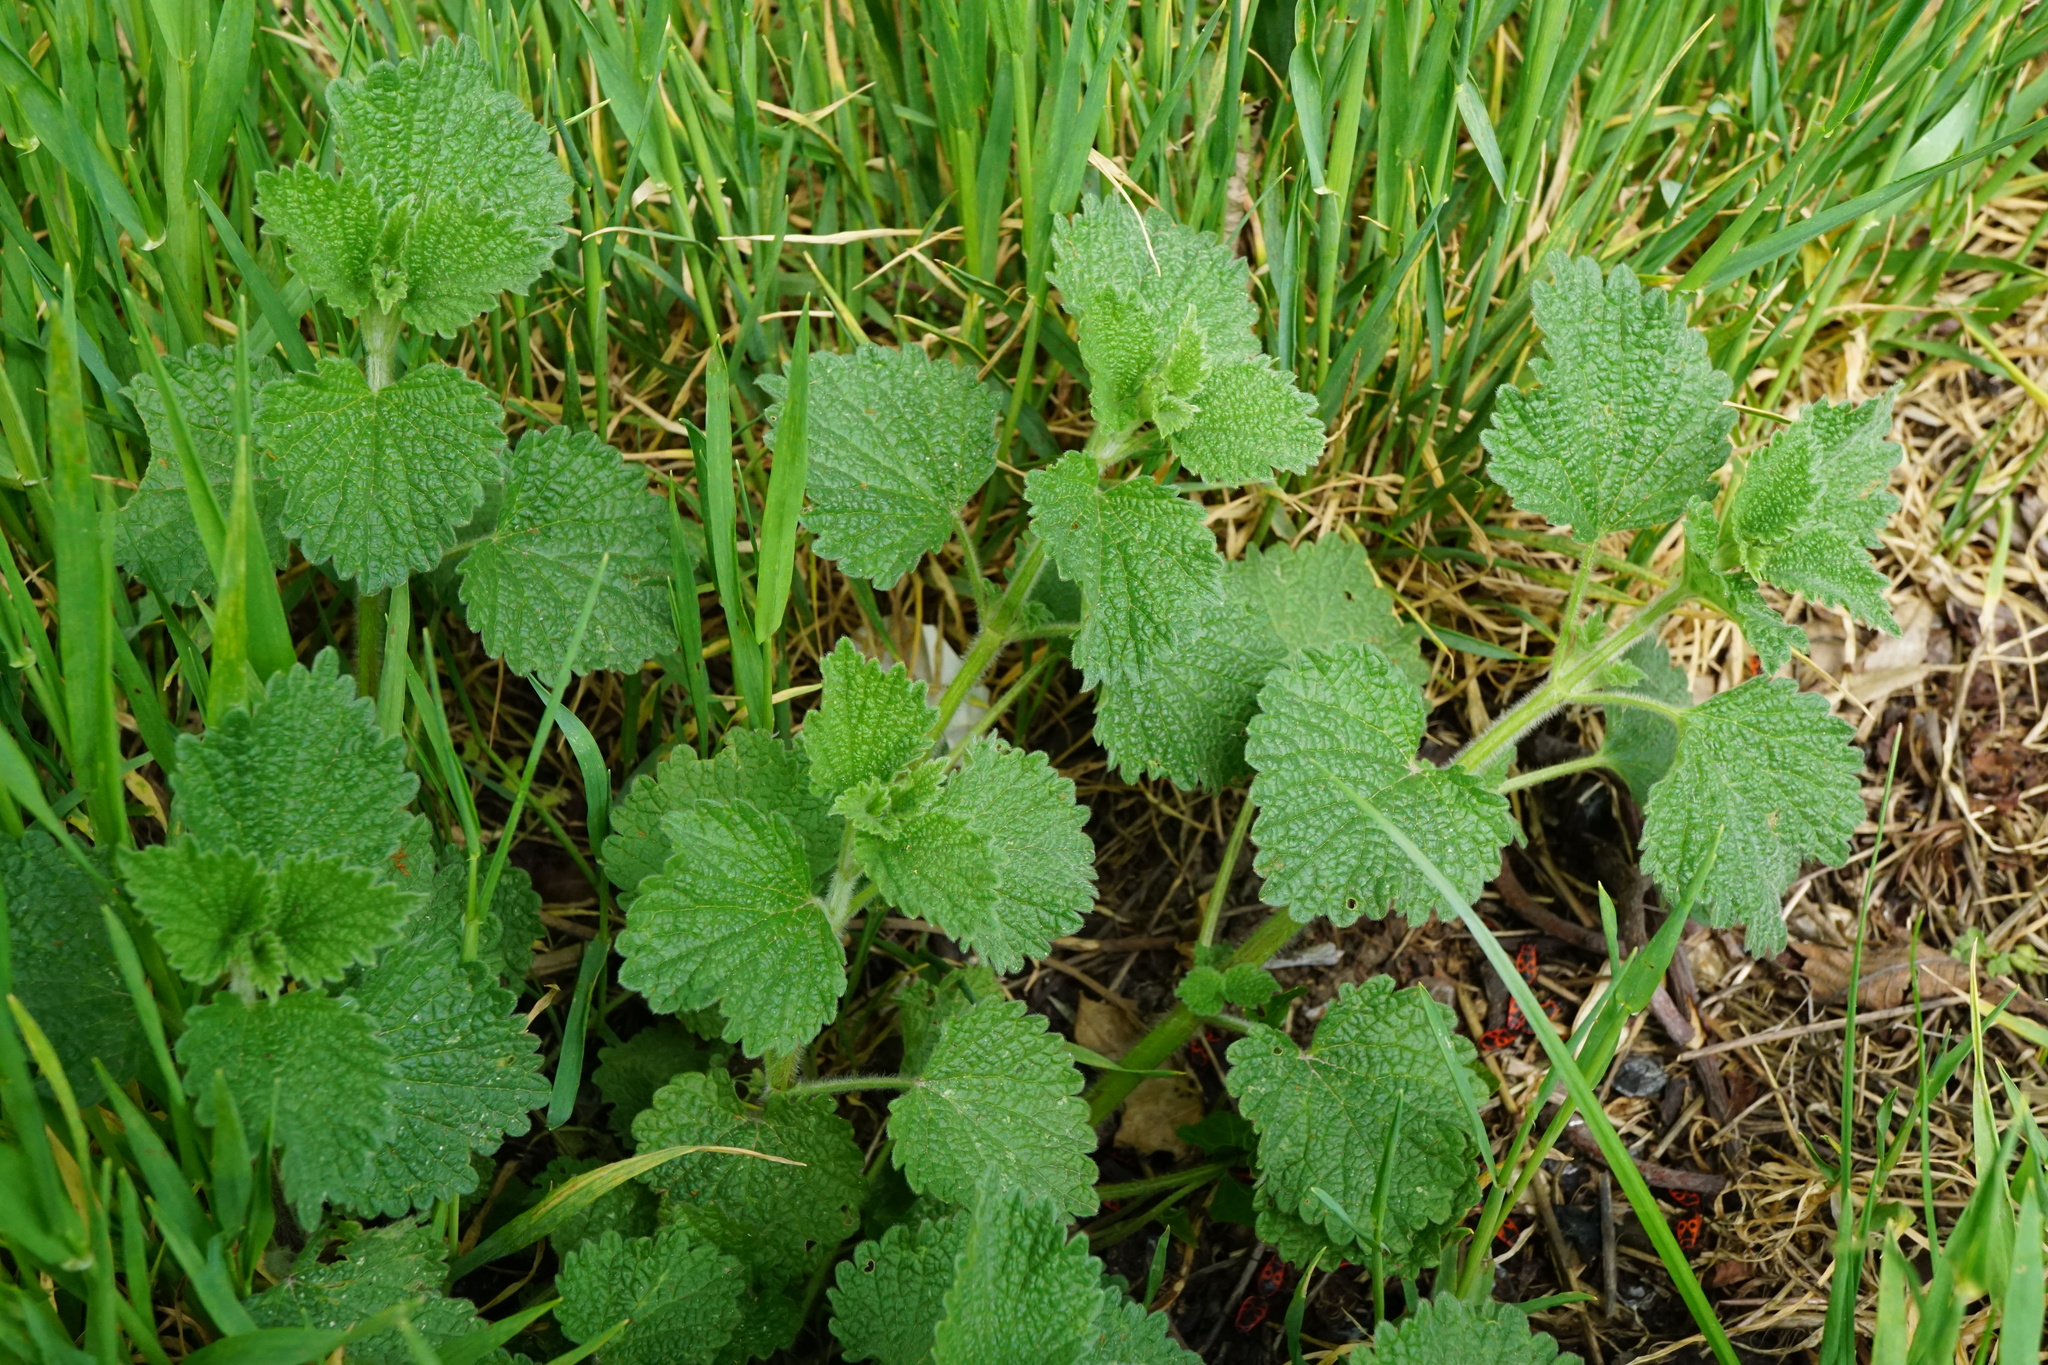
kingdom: Plantae
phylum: Tracheophyta
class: Magnoliopsida
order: Lamiales
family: Lamiaceae
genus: Ballota
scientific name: Ballota nigra
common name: Black horehound
